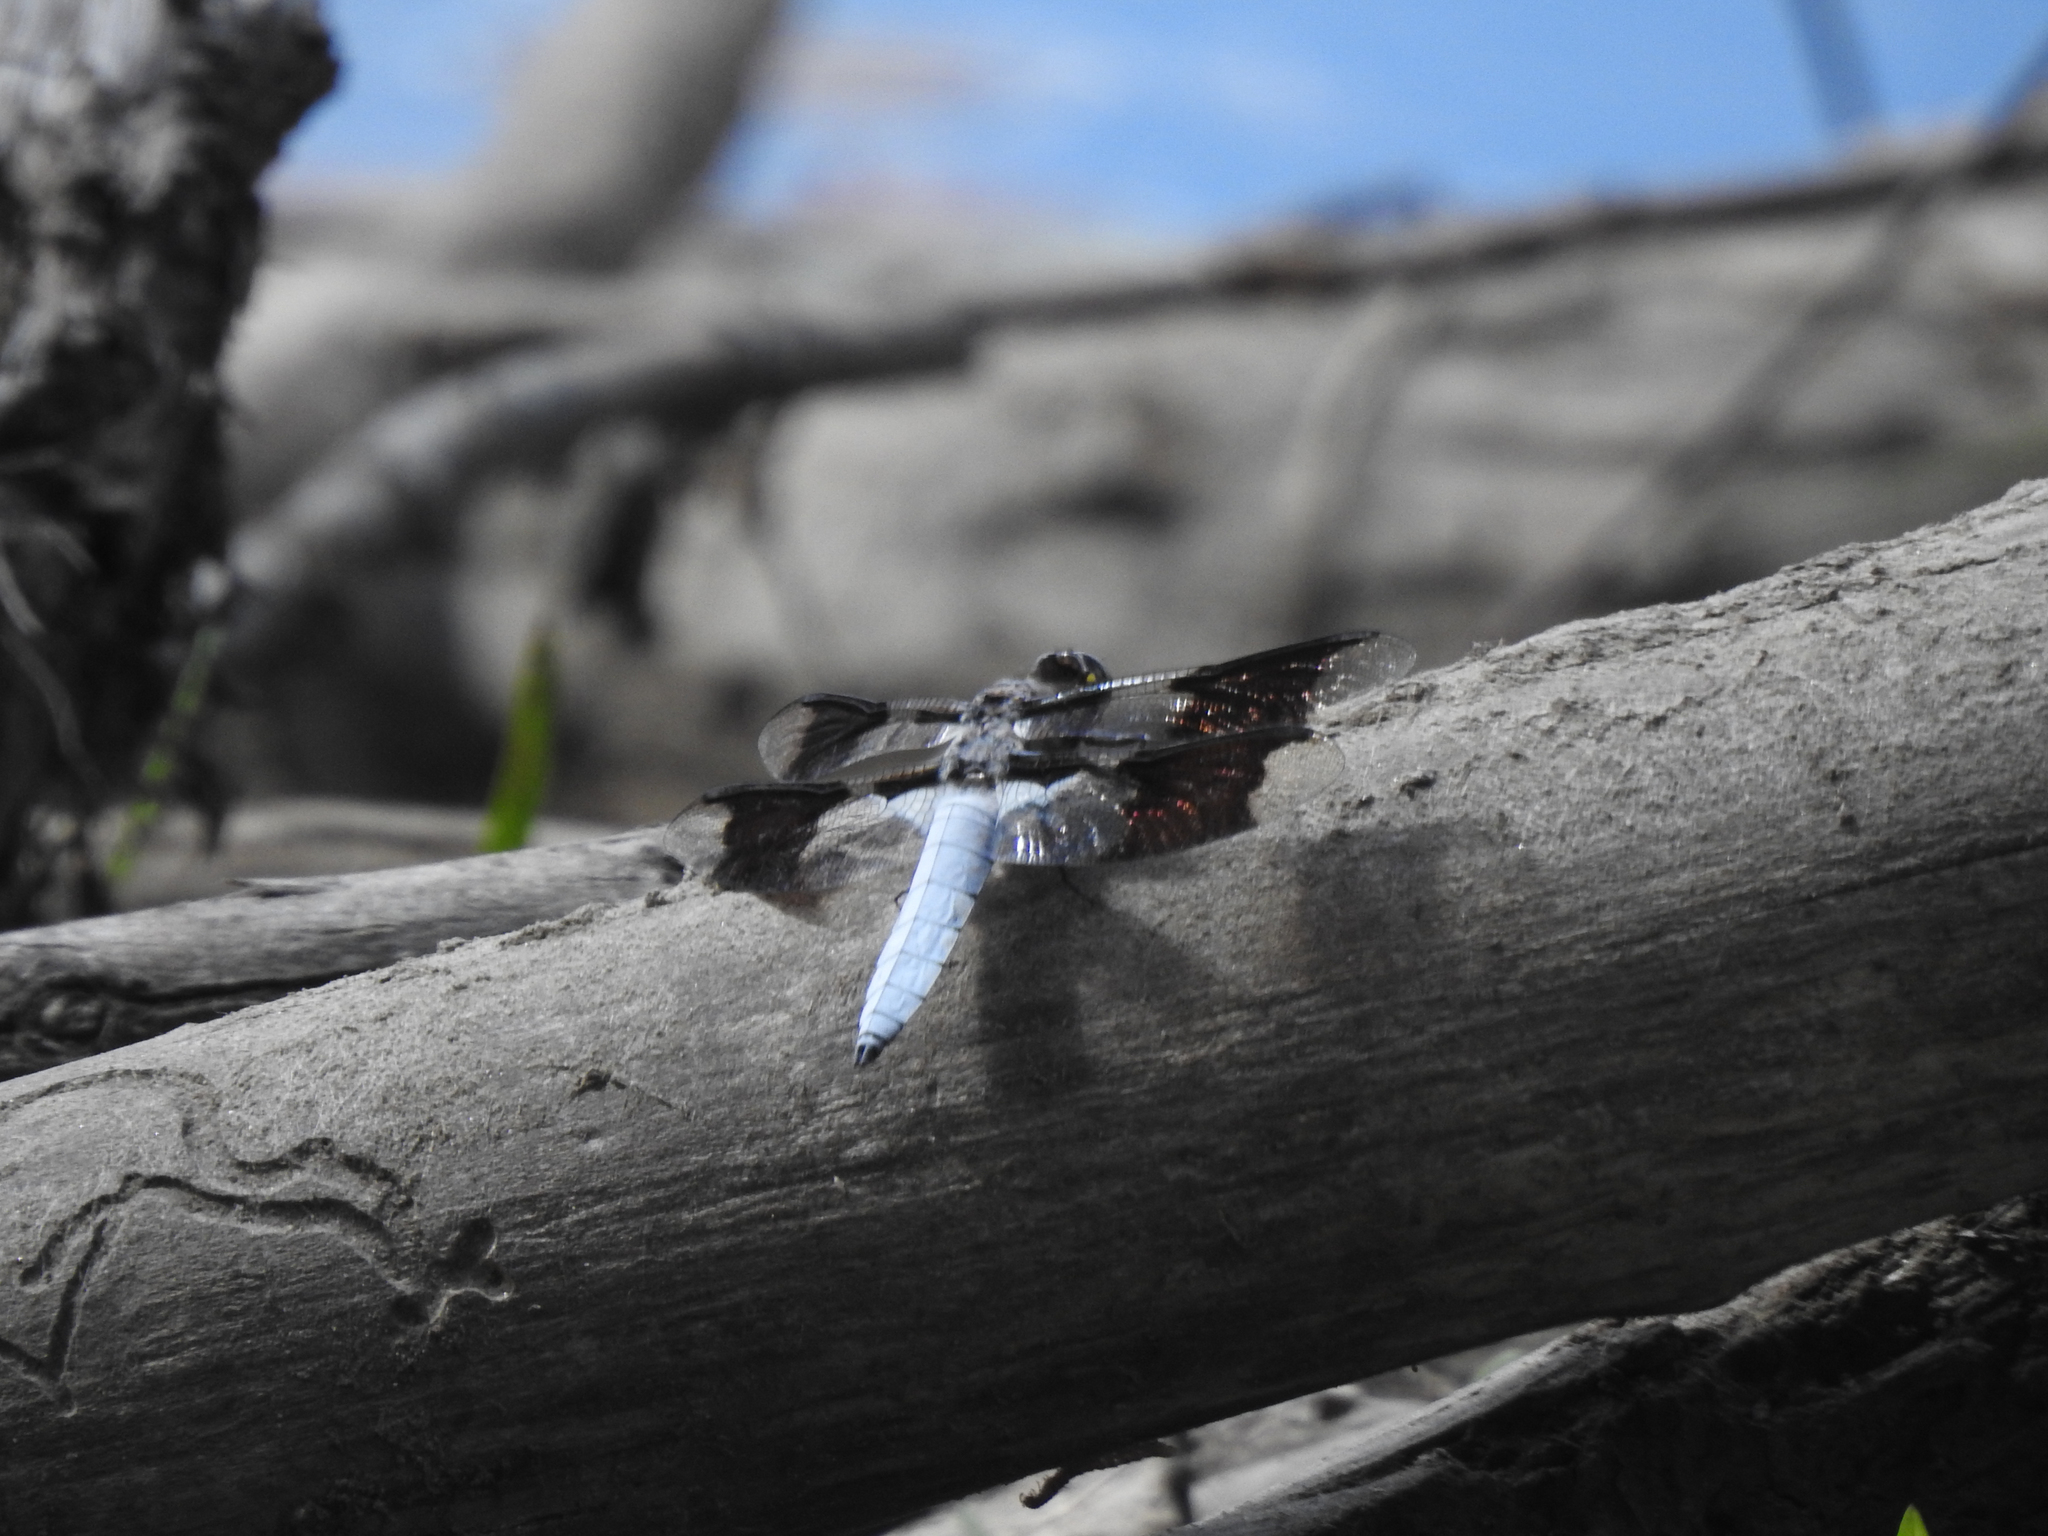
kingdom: Animalia
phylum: Arthropoda
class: Insecta
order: Odonata
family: Libellulidae
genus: Plathemis
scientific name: Plathemis lydia
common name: Common whitetail
